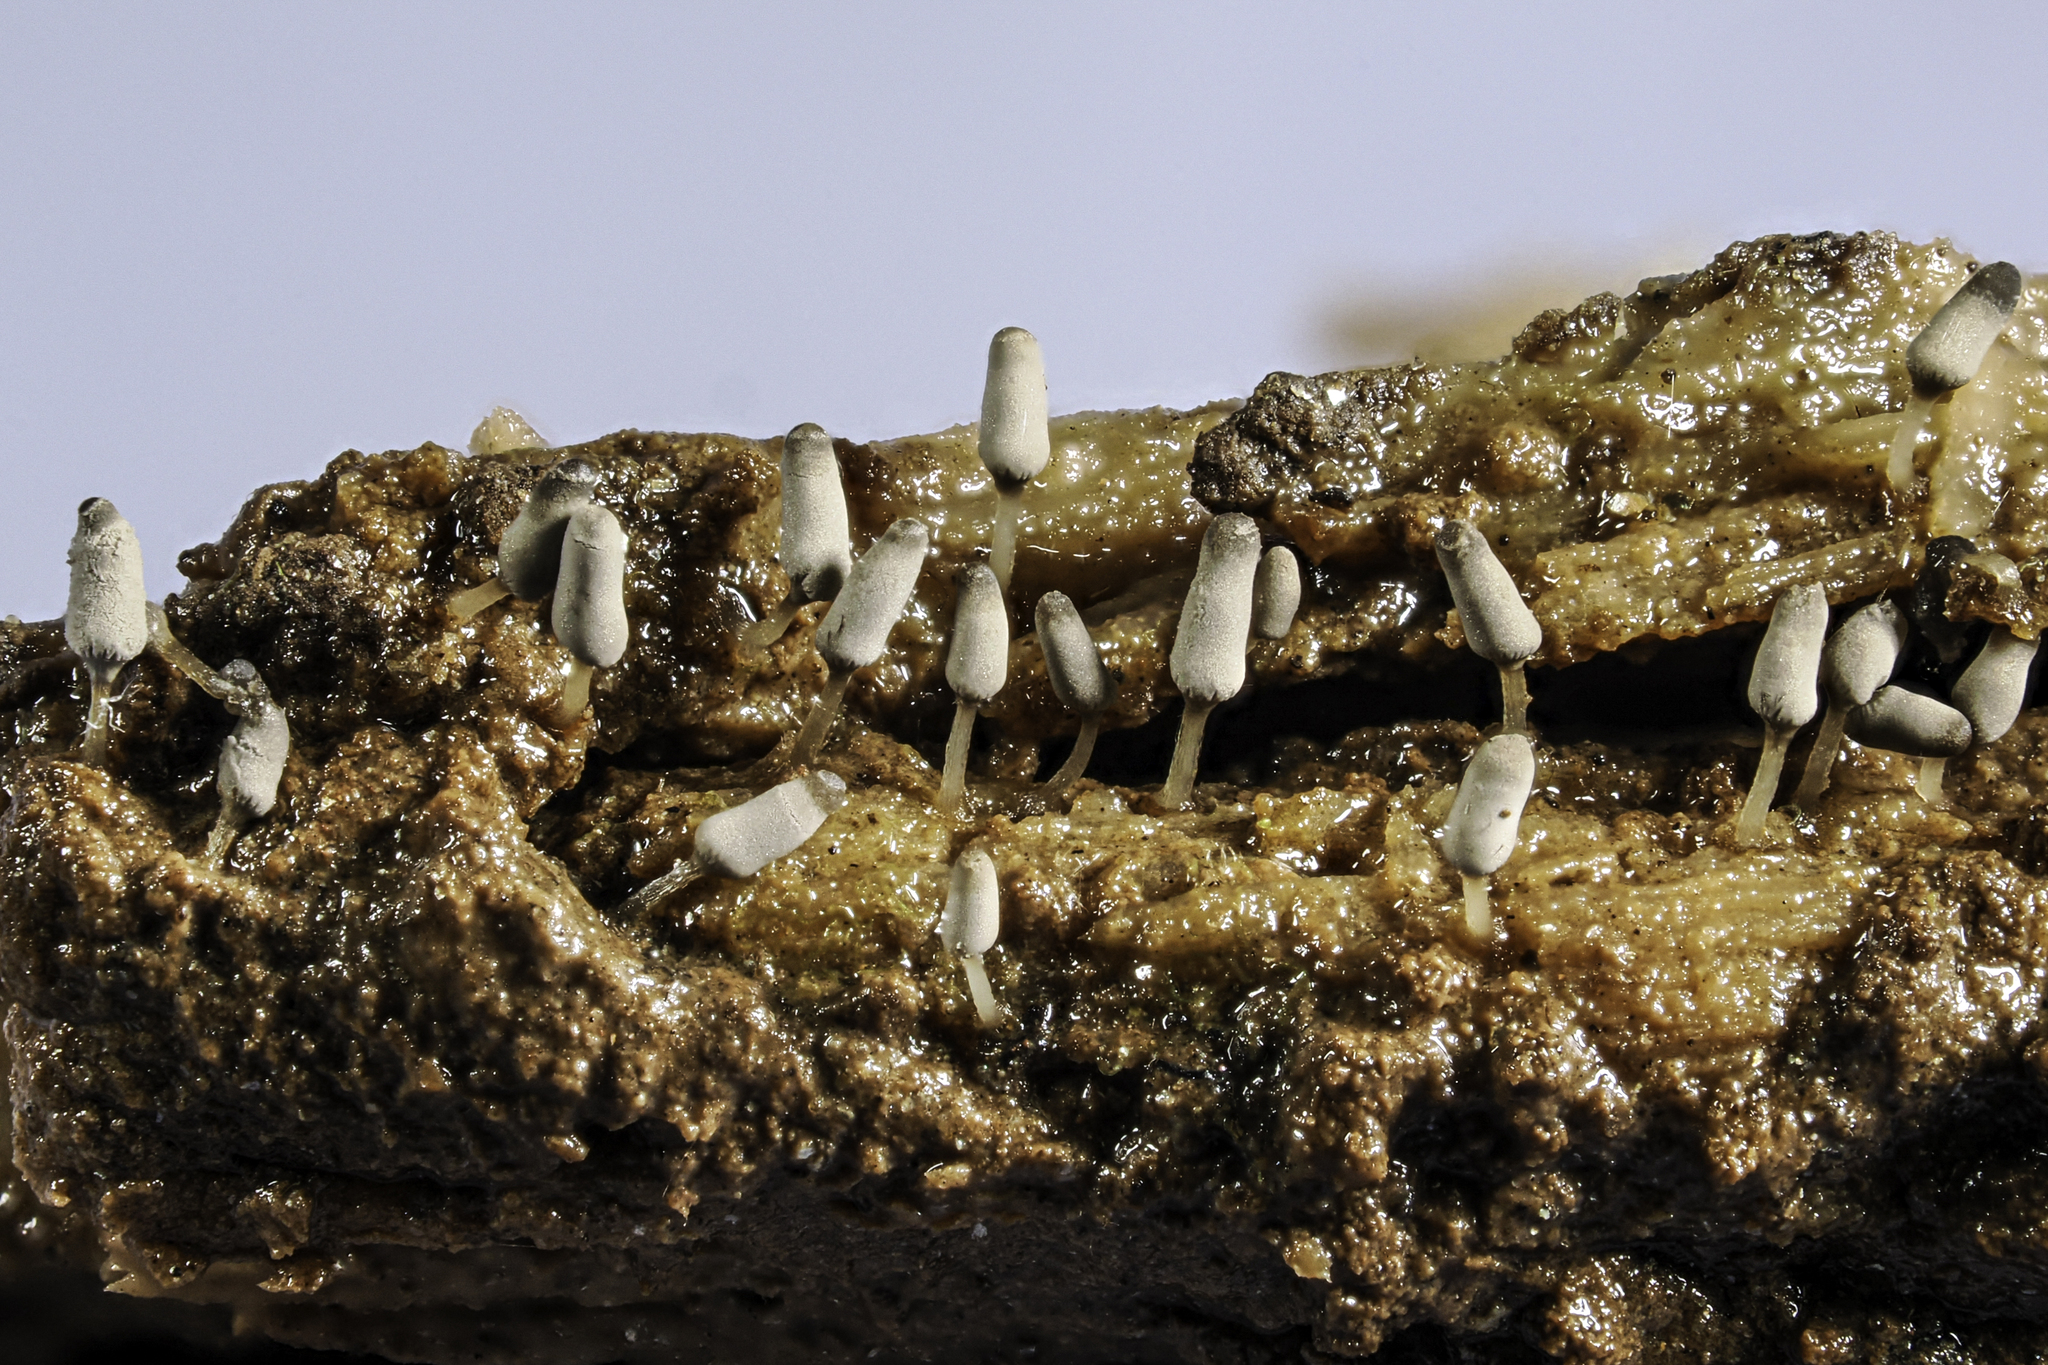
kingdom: Protozoa
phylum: Mycetozoa
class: Myxomycetes
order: Trichiales
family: Arcyriaceae
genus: Arcyria
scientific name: Arcyria cinerea
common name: White carnival candy slime mold
